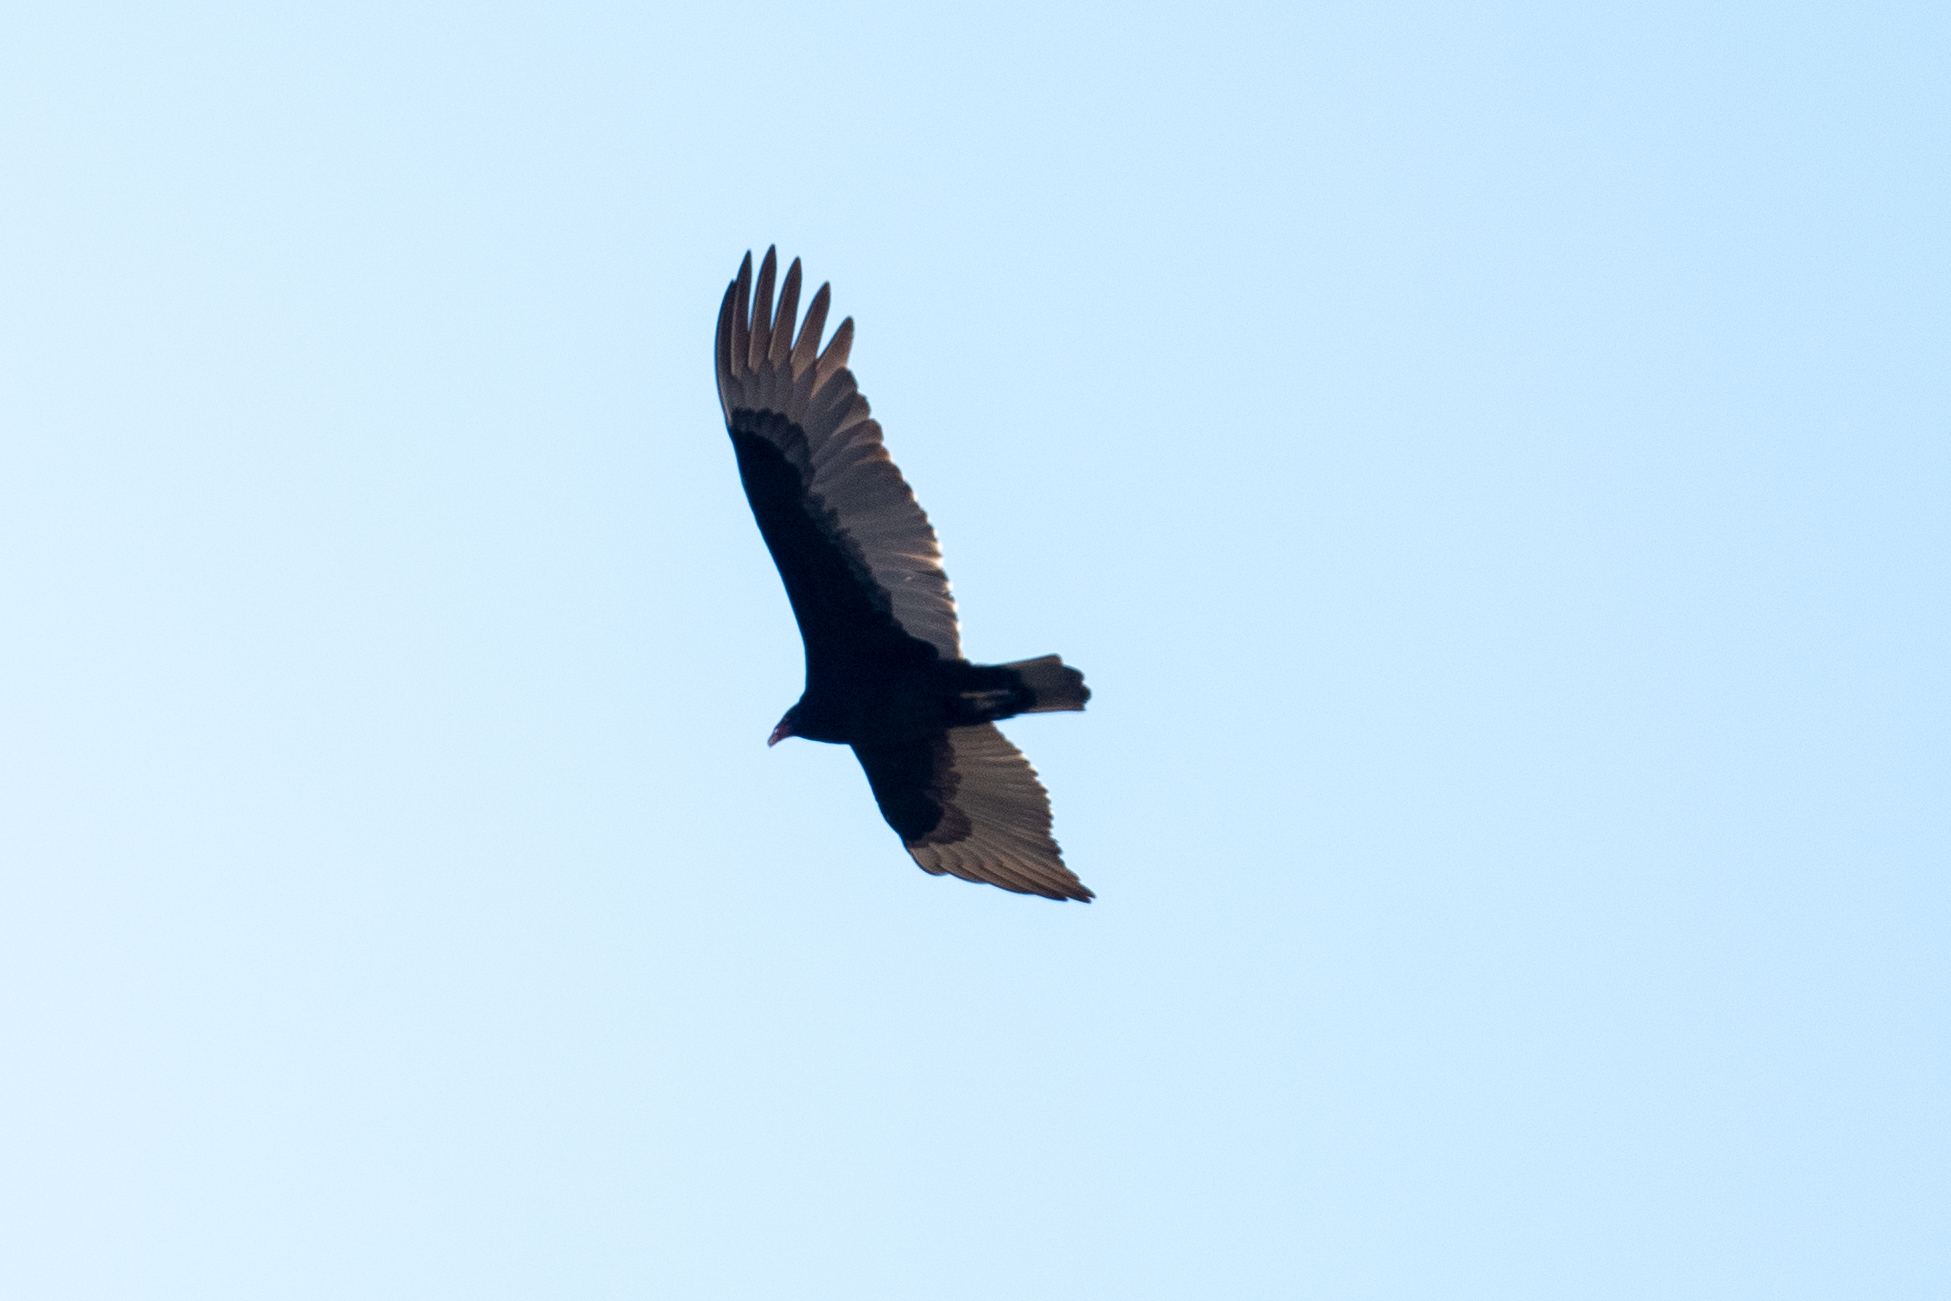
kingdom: Animalia
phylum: Chordata
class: Aves
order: Accipitriformes
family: Cathartidae
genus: Cathartes
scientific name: Cathartes aura
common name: Turkey vulture
